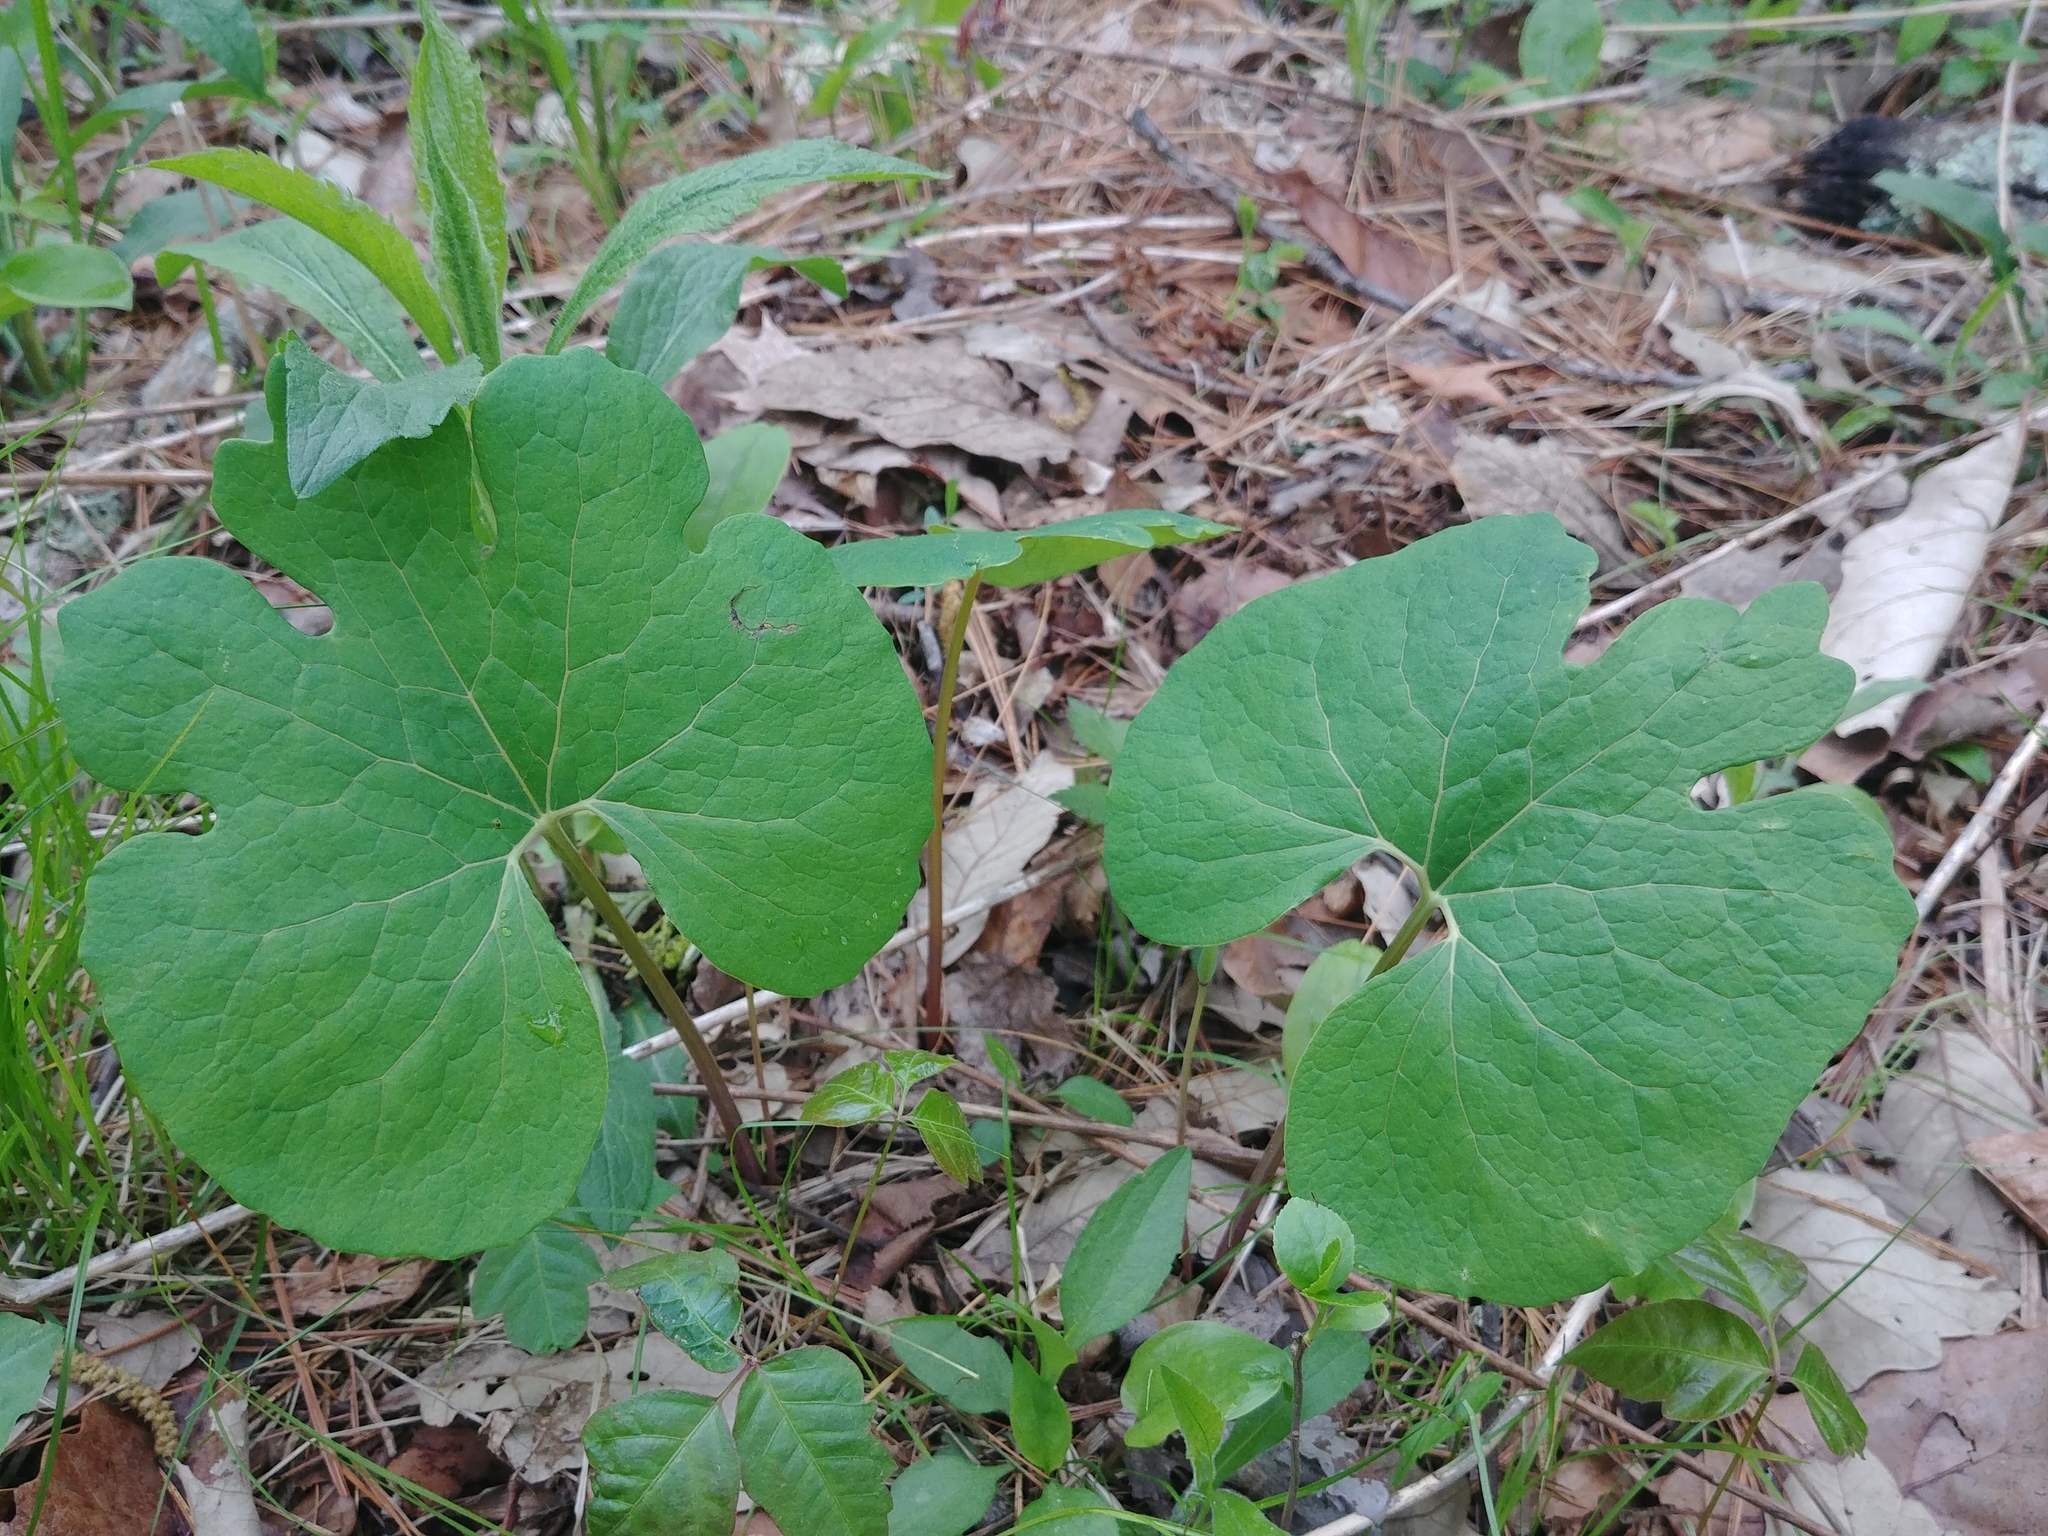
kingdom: Plantae
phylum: Tracheophyta
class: Magnoliopsida
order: Ranunculales
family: Papaveraceae
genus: Sanguinaria
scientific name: Sanguinaria canadensis
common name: Bloodroot
